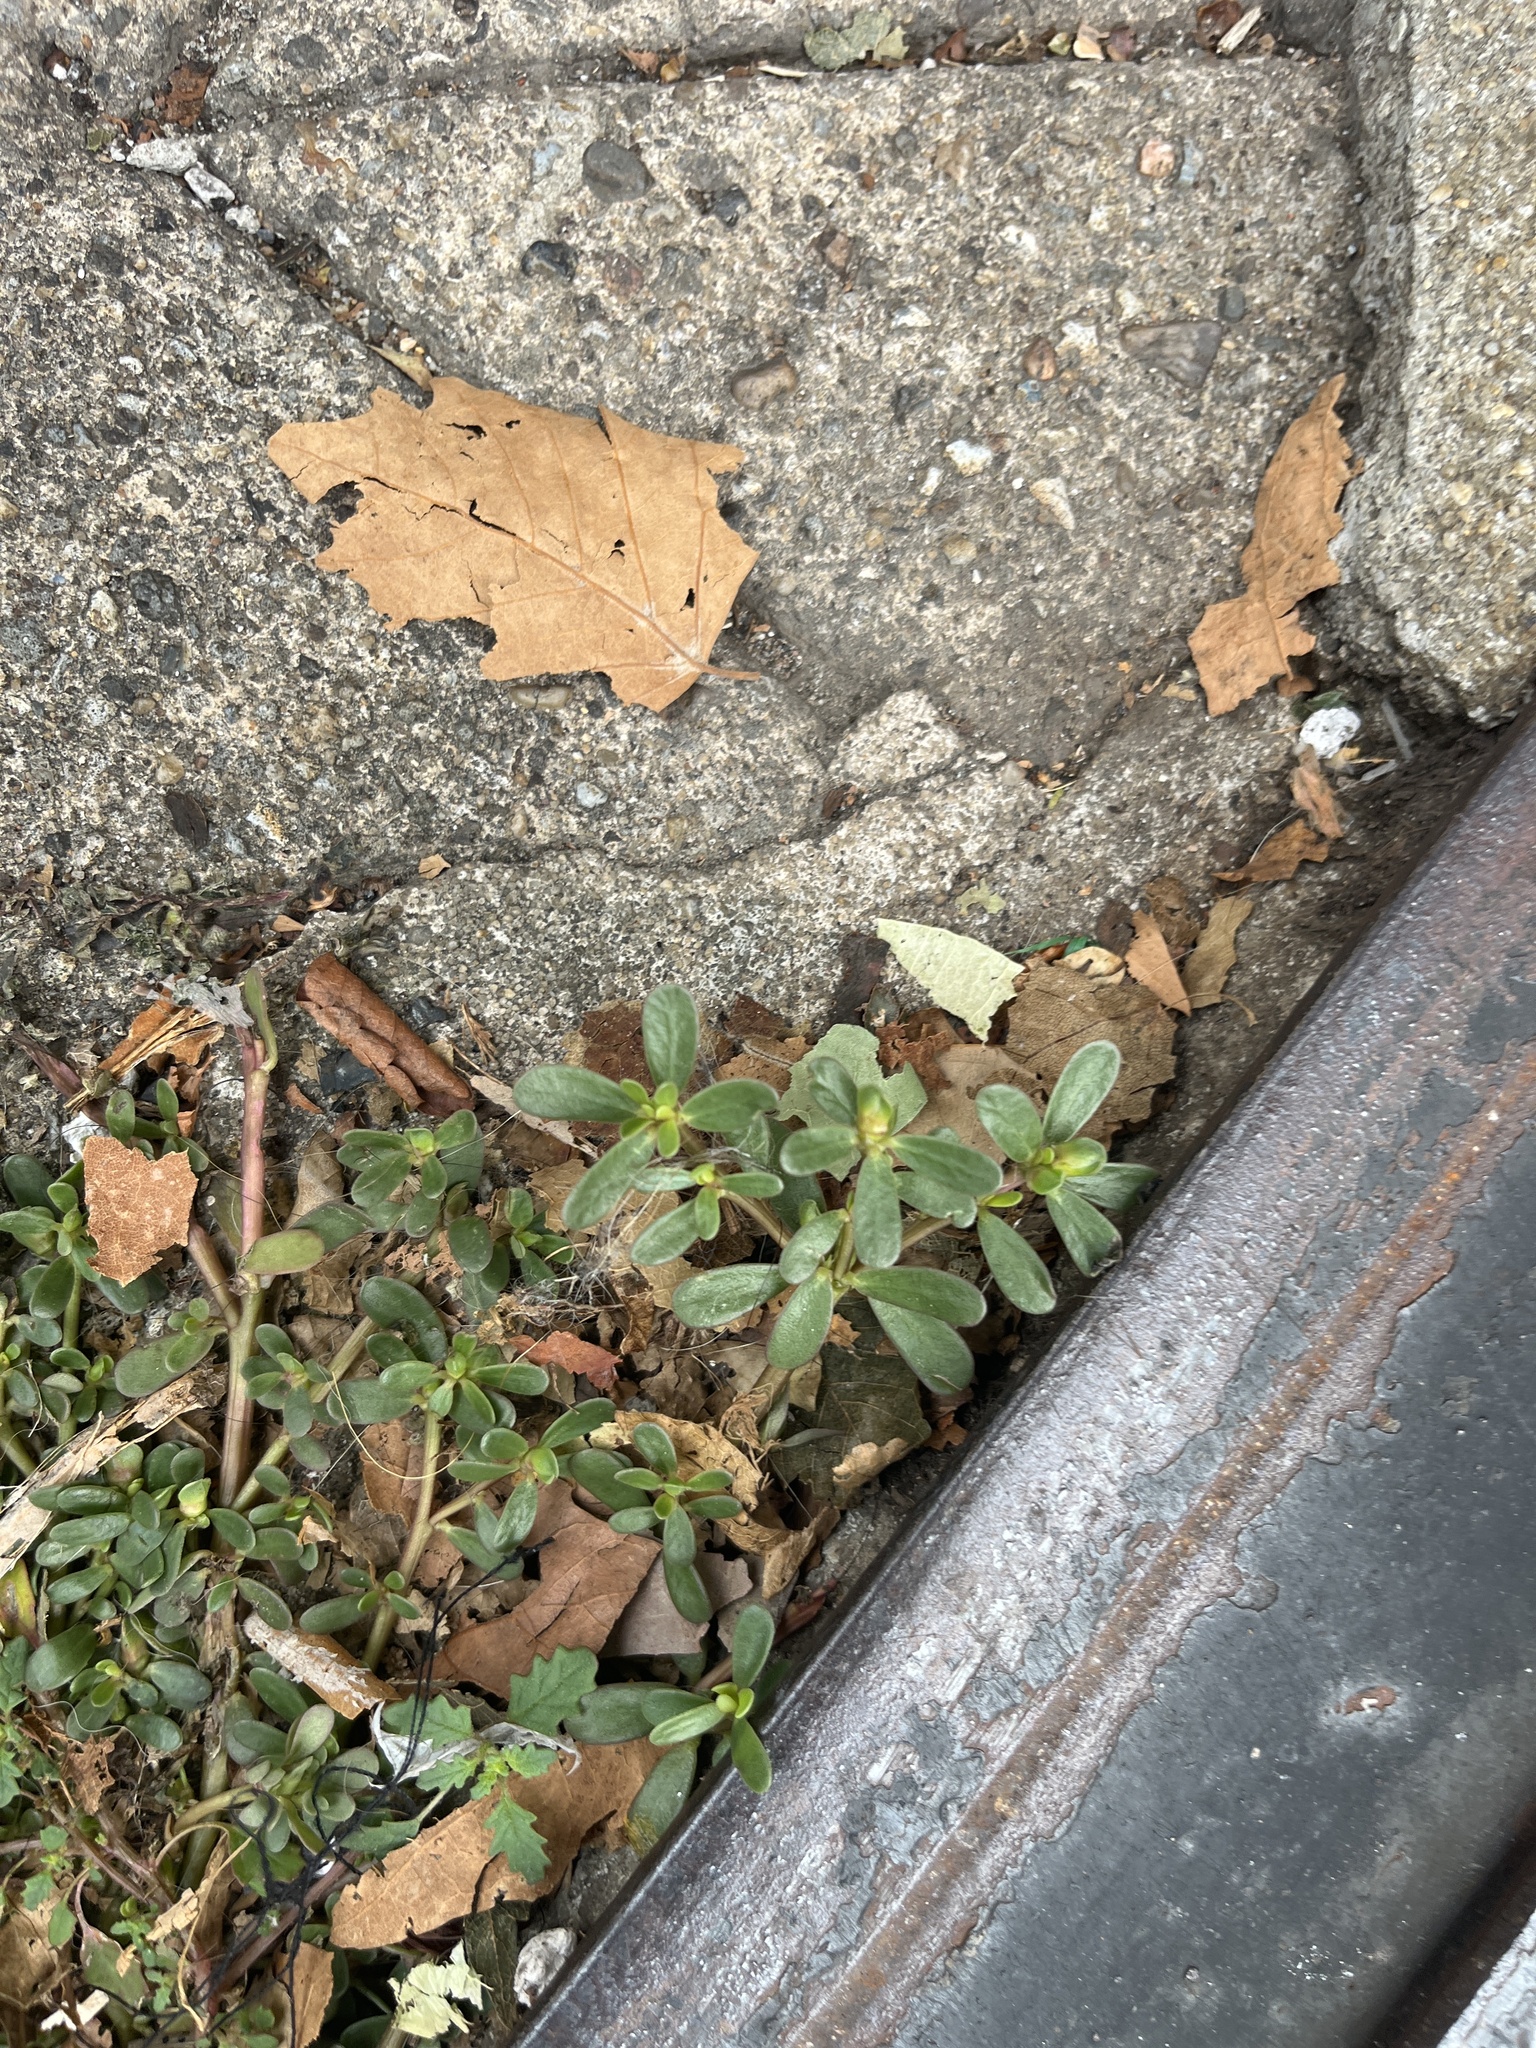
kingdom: Plantae
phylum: Tracheophyta
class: Magnoliopsida
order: Caryophyllales
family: Portulacaceae
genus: Portulaca
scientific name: Portulaca oleracea
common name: Common purslane
